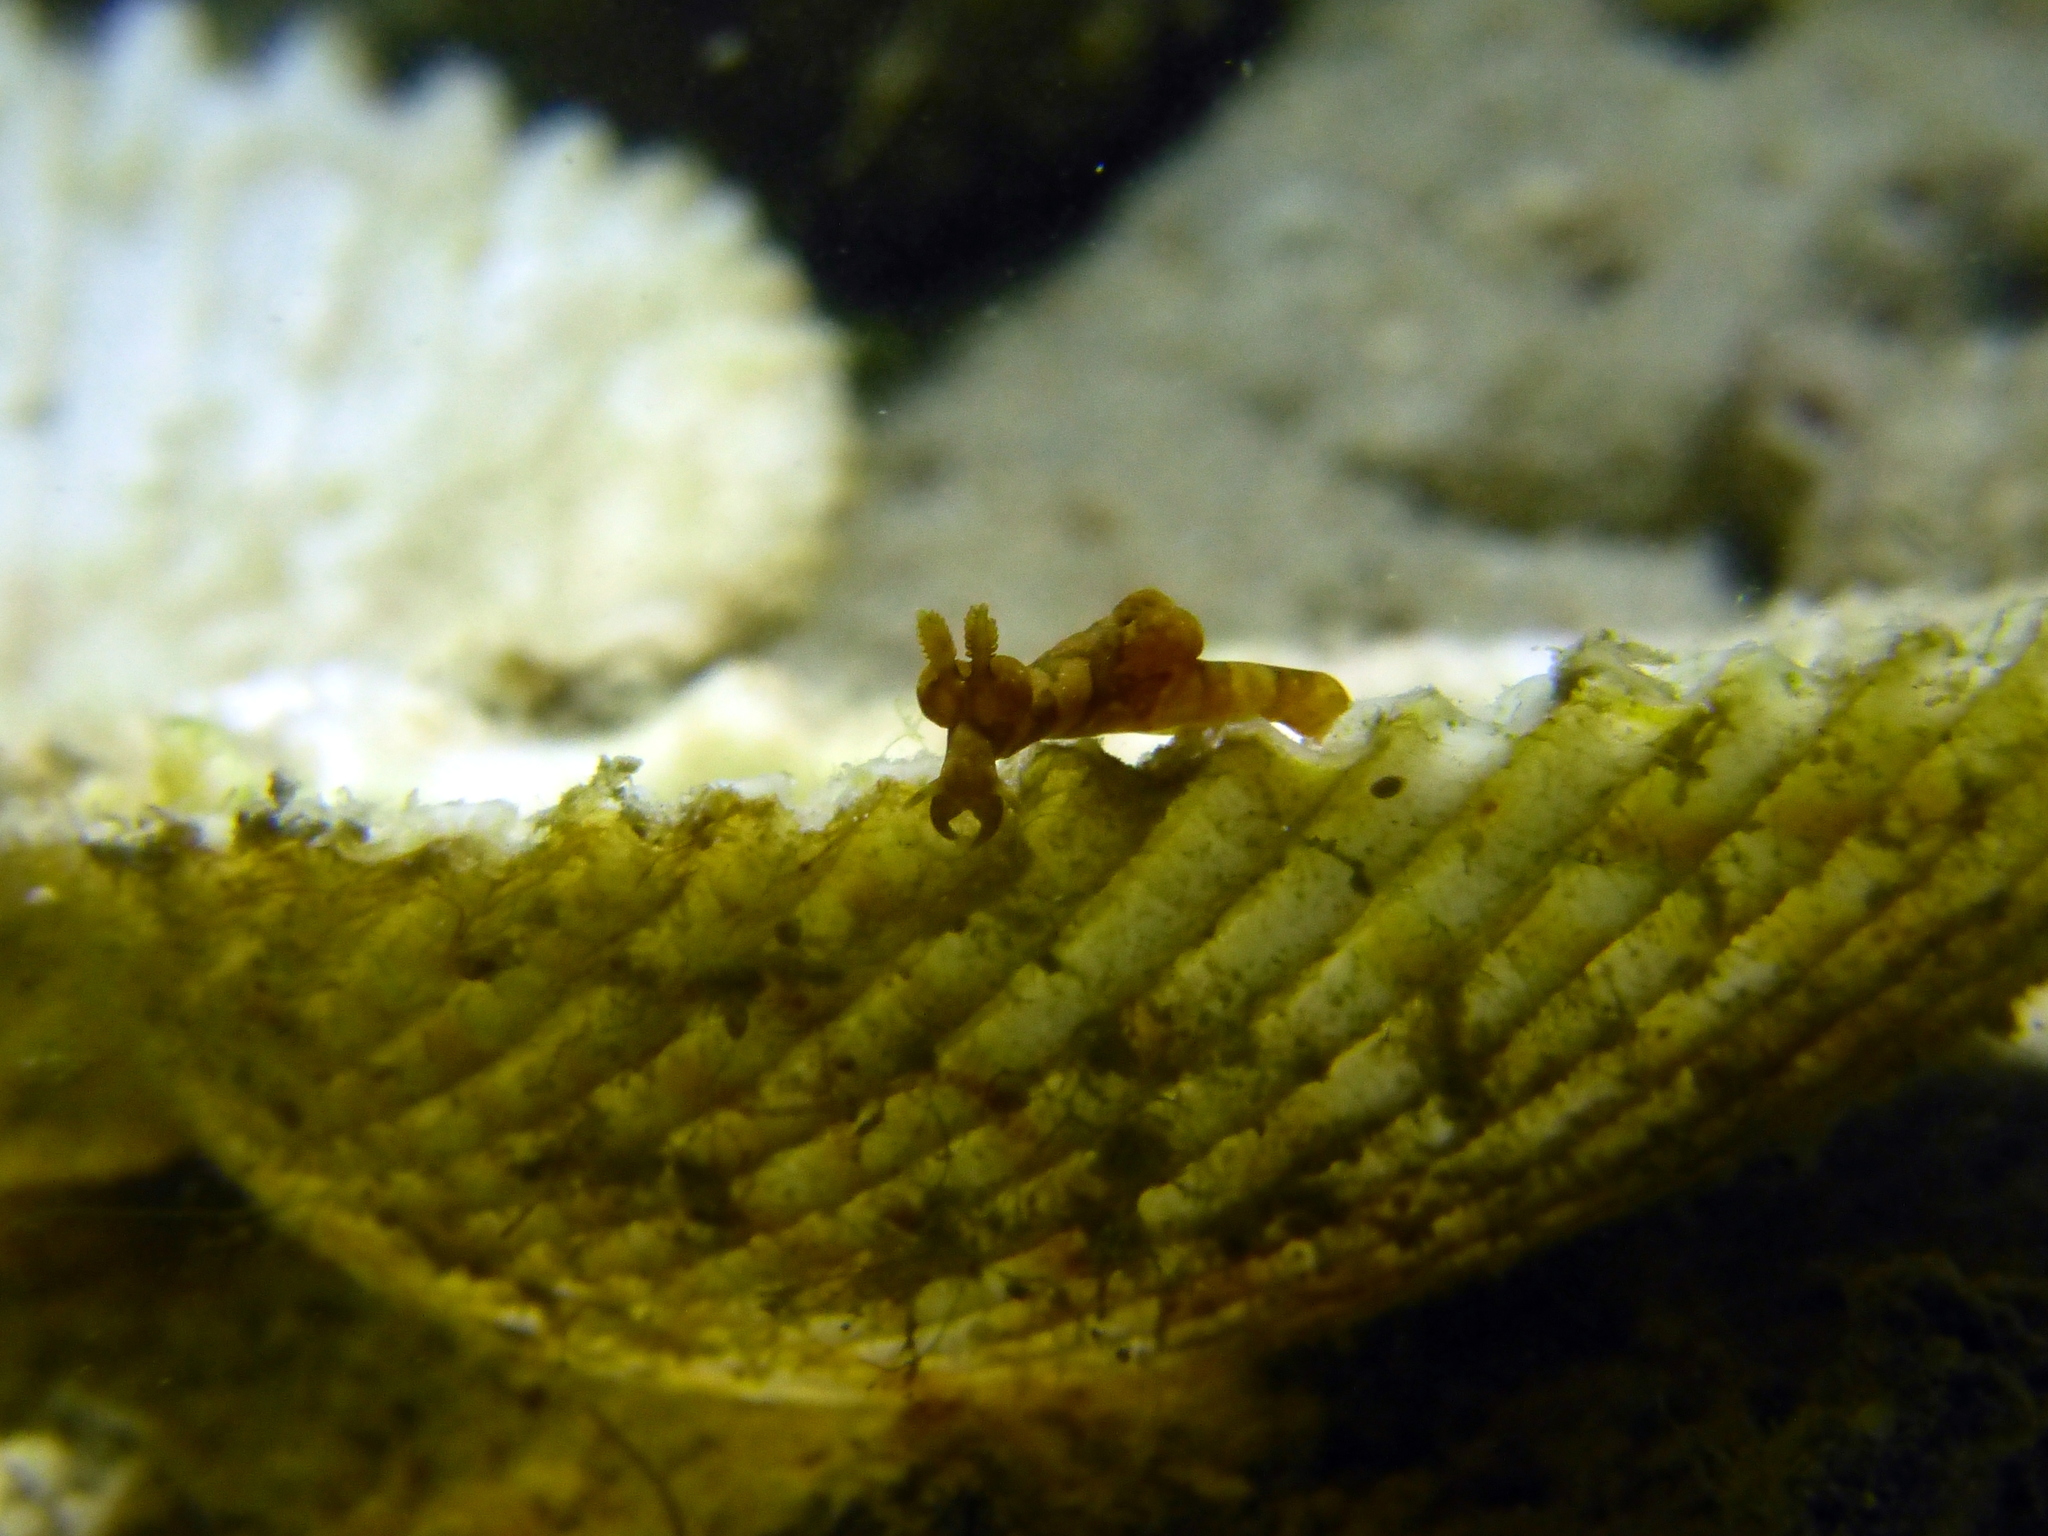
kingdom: Animalia
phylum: Mollusca
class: Gastropoda
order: Nudibranchia
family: Goniodorididae
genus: Trapania
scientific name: Trapania tigger
